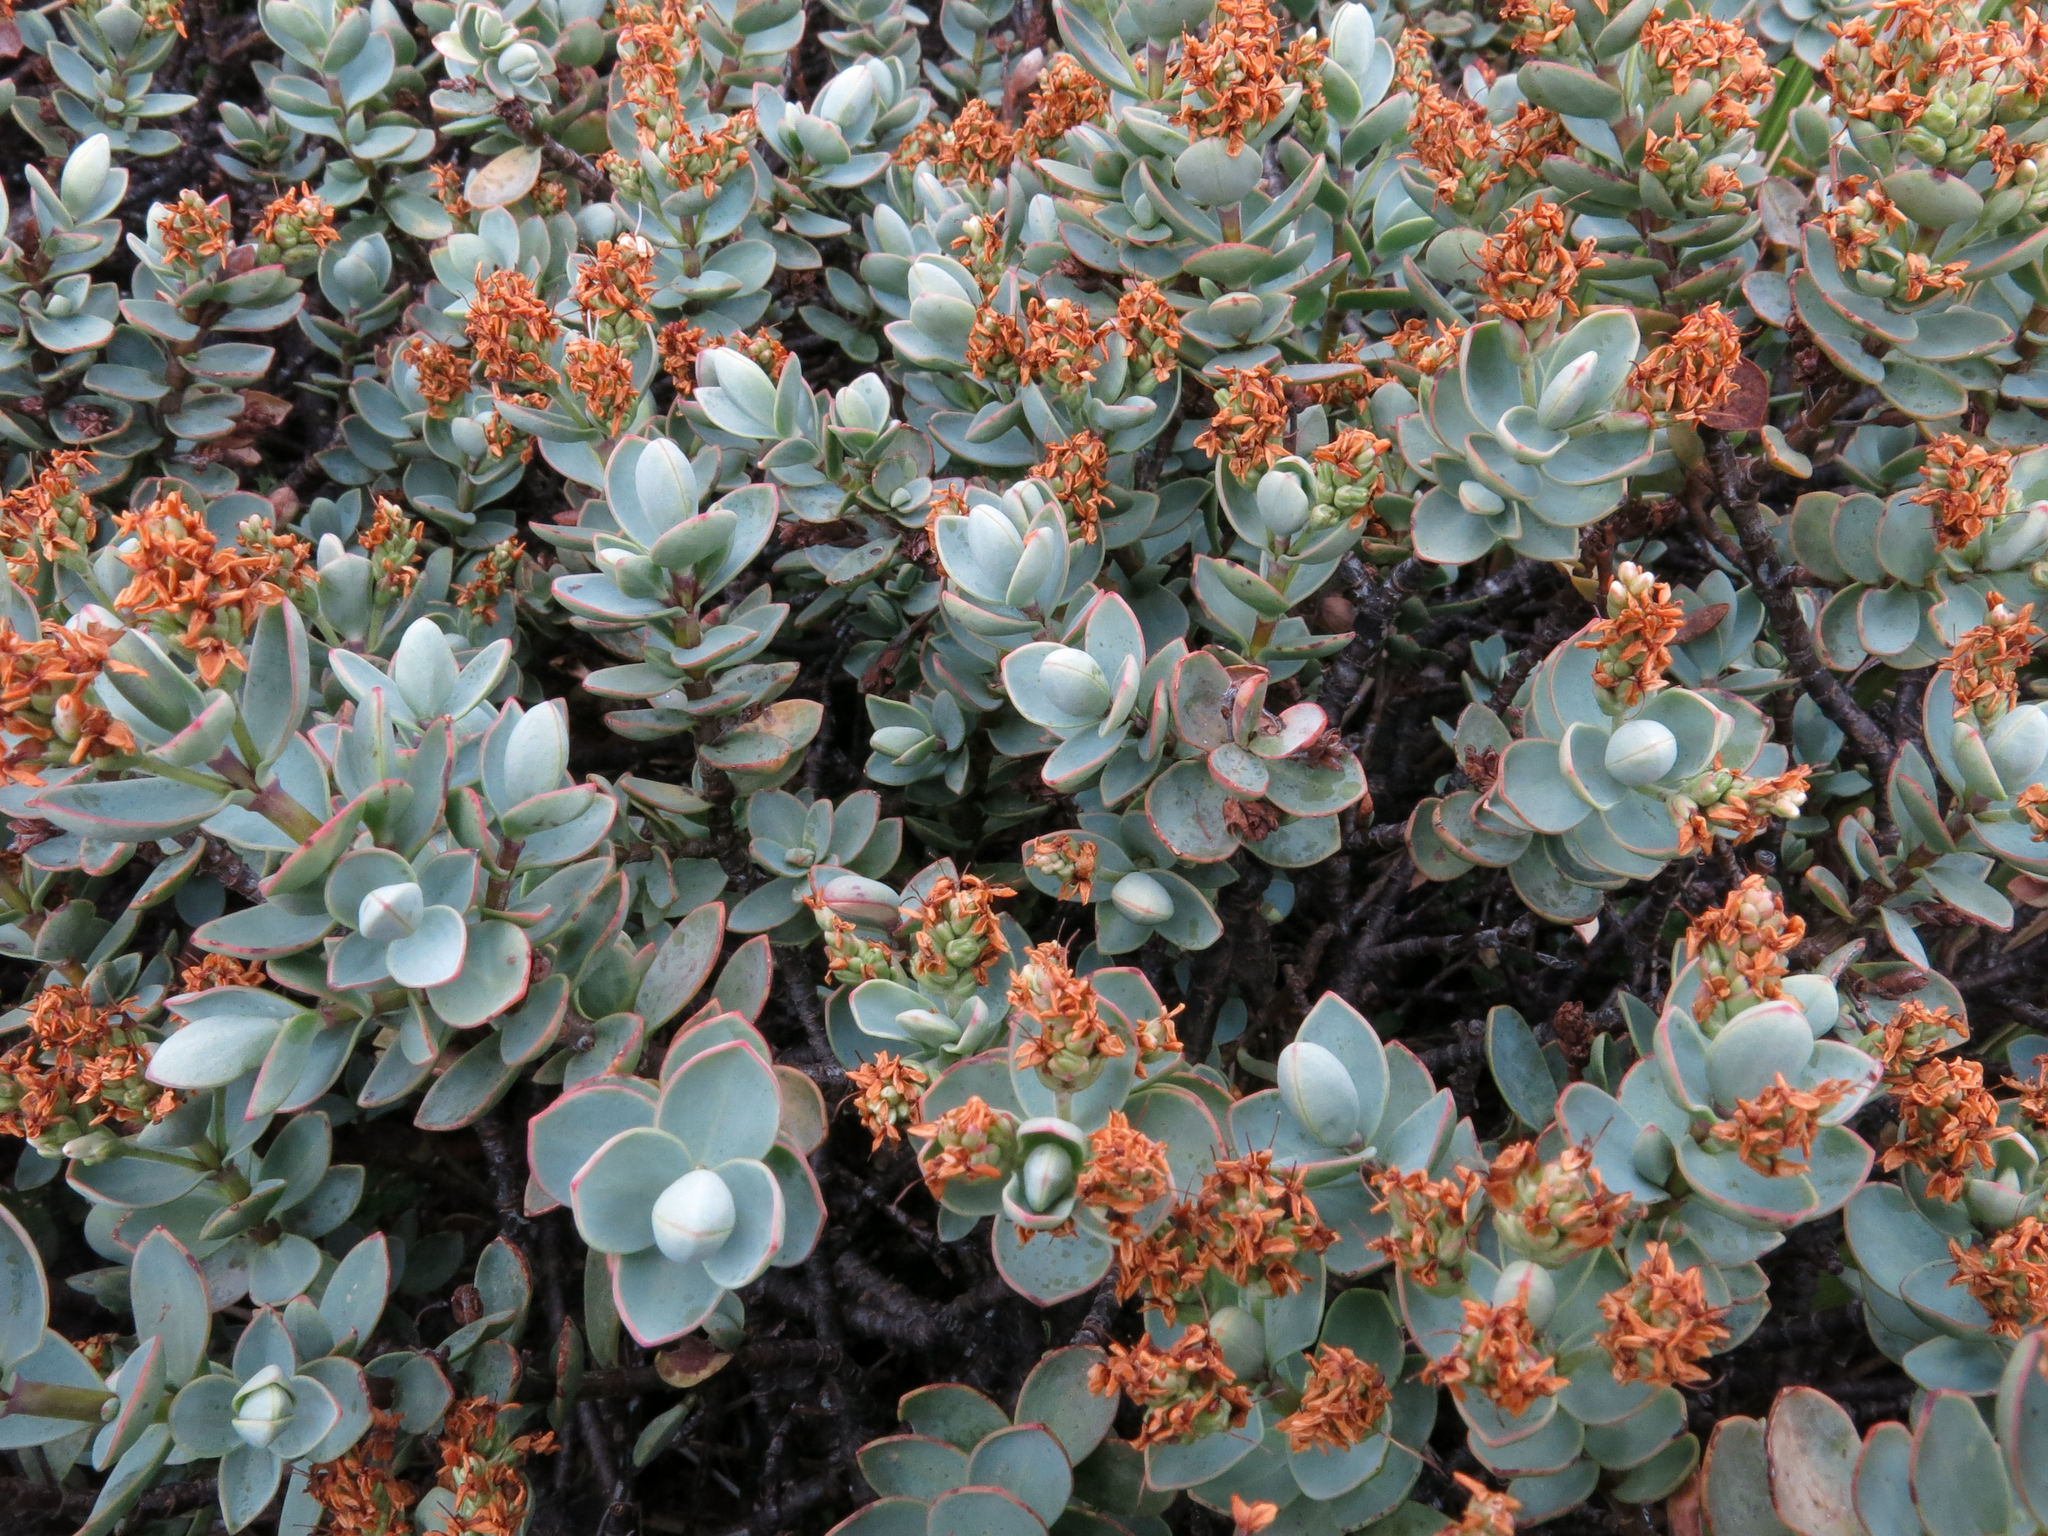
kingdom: Plantae
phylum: Tracheophyta
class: Magnoliopsida
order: Lamiales
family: Plantaginaceae
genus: Veronica
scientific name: Veronica pinguifolia
